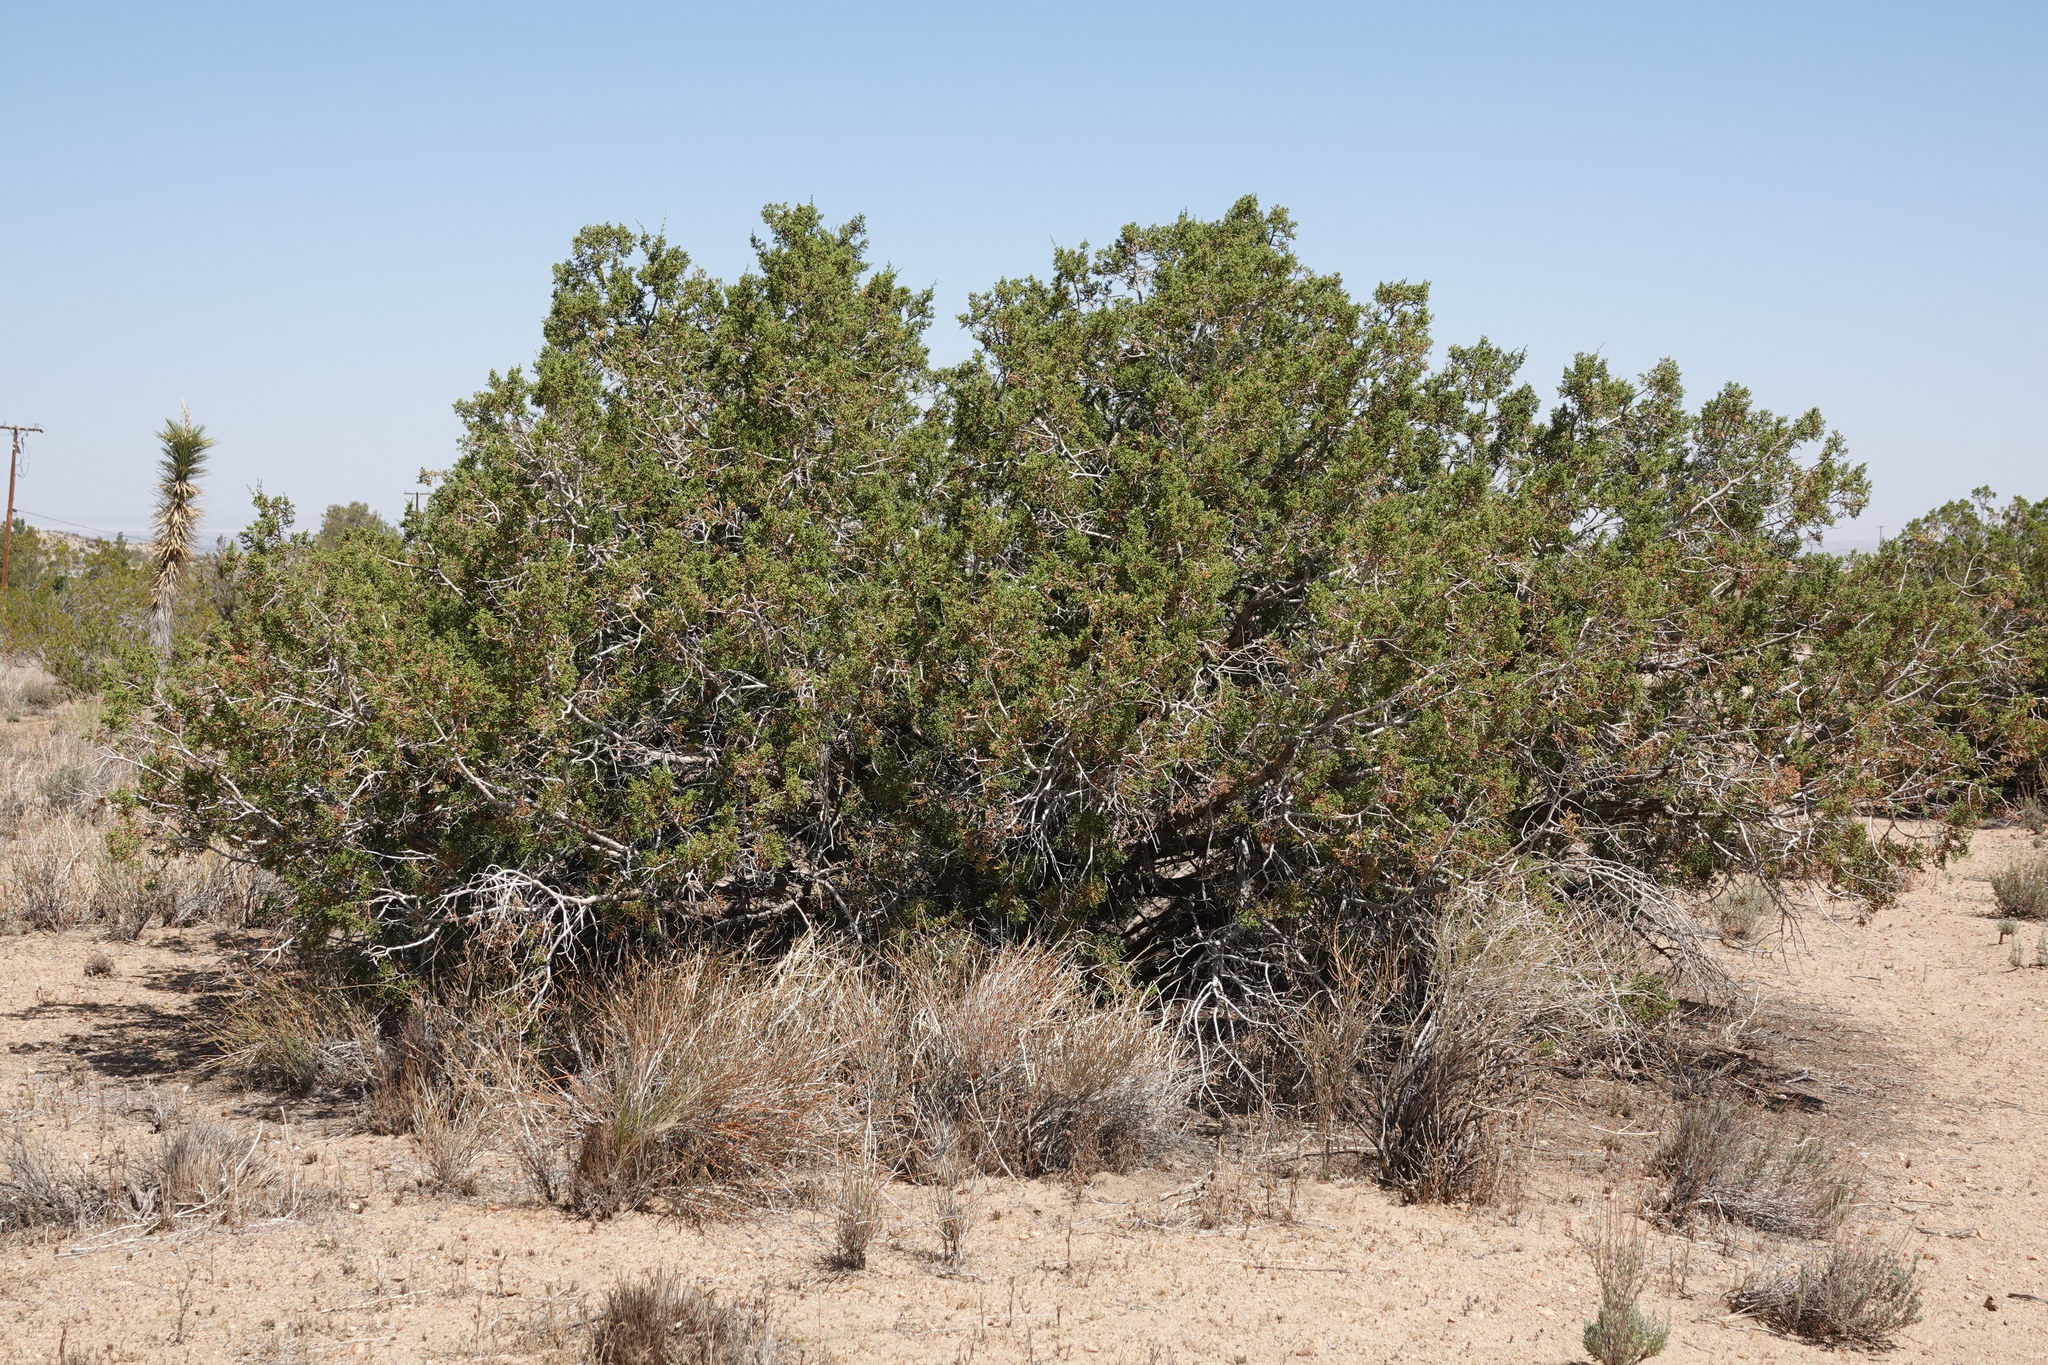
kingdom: Plantae
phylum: Tracheophyta
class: Pinopsida
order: Pinales
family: Cupressaceae
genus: Juniperus
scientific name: Juniperus californica
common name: California juniper
